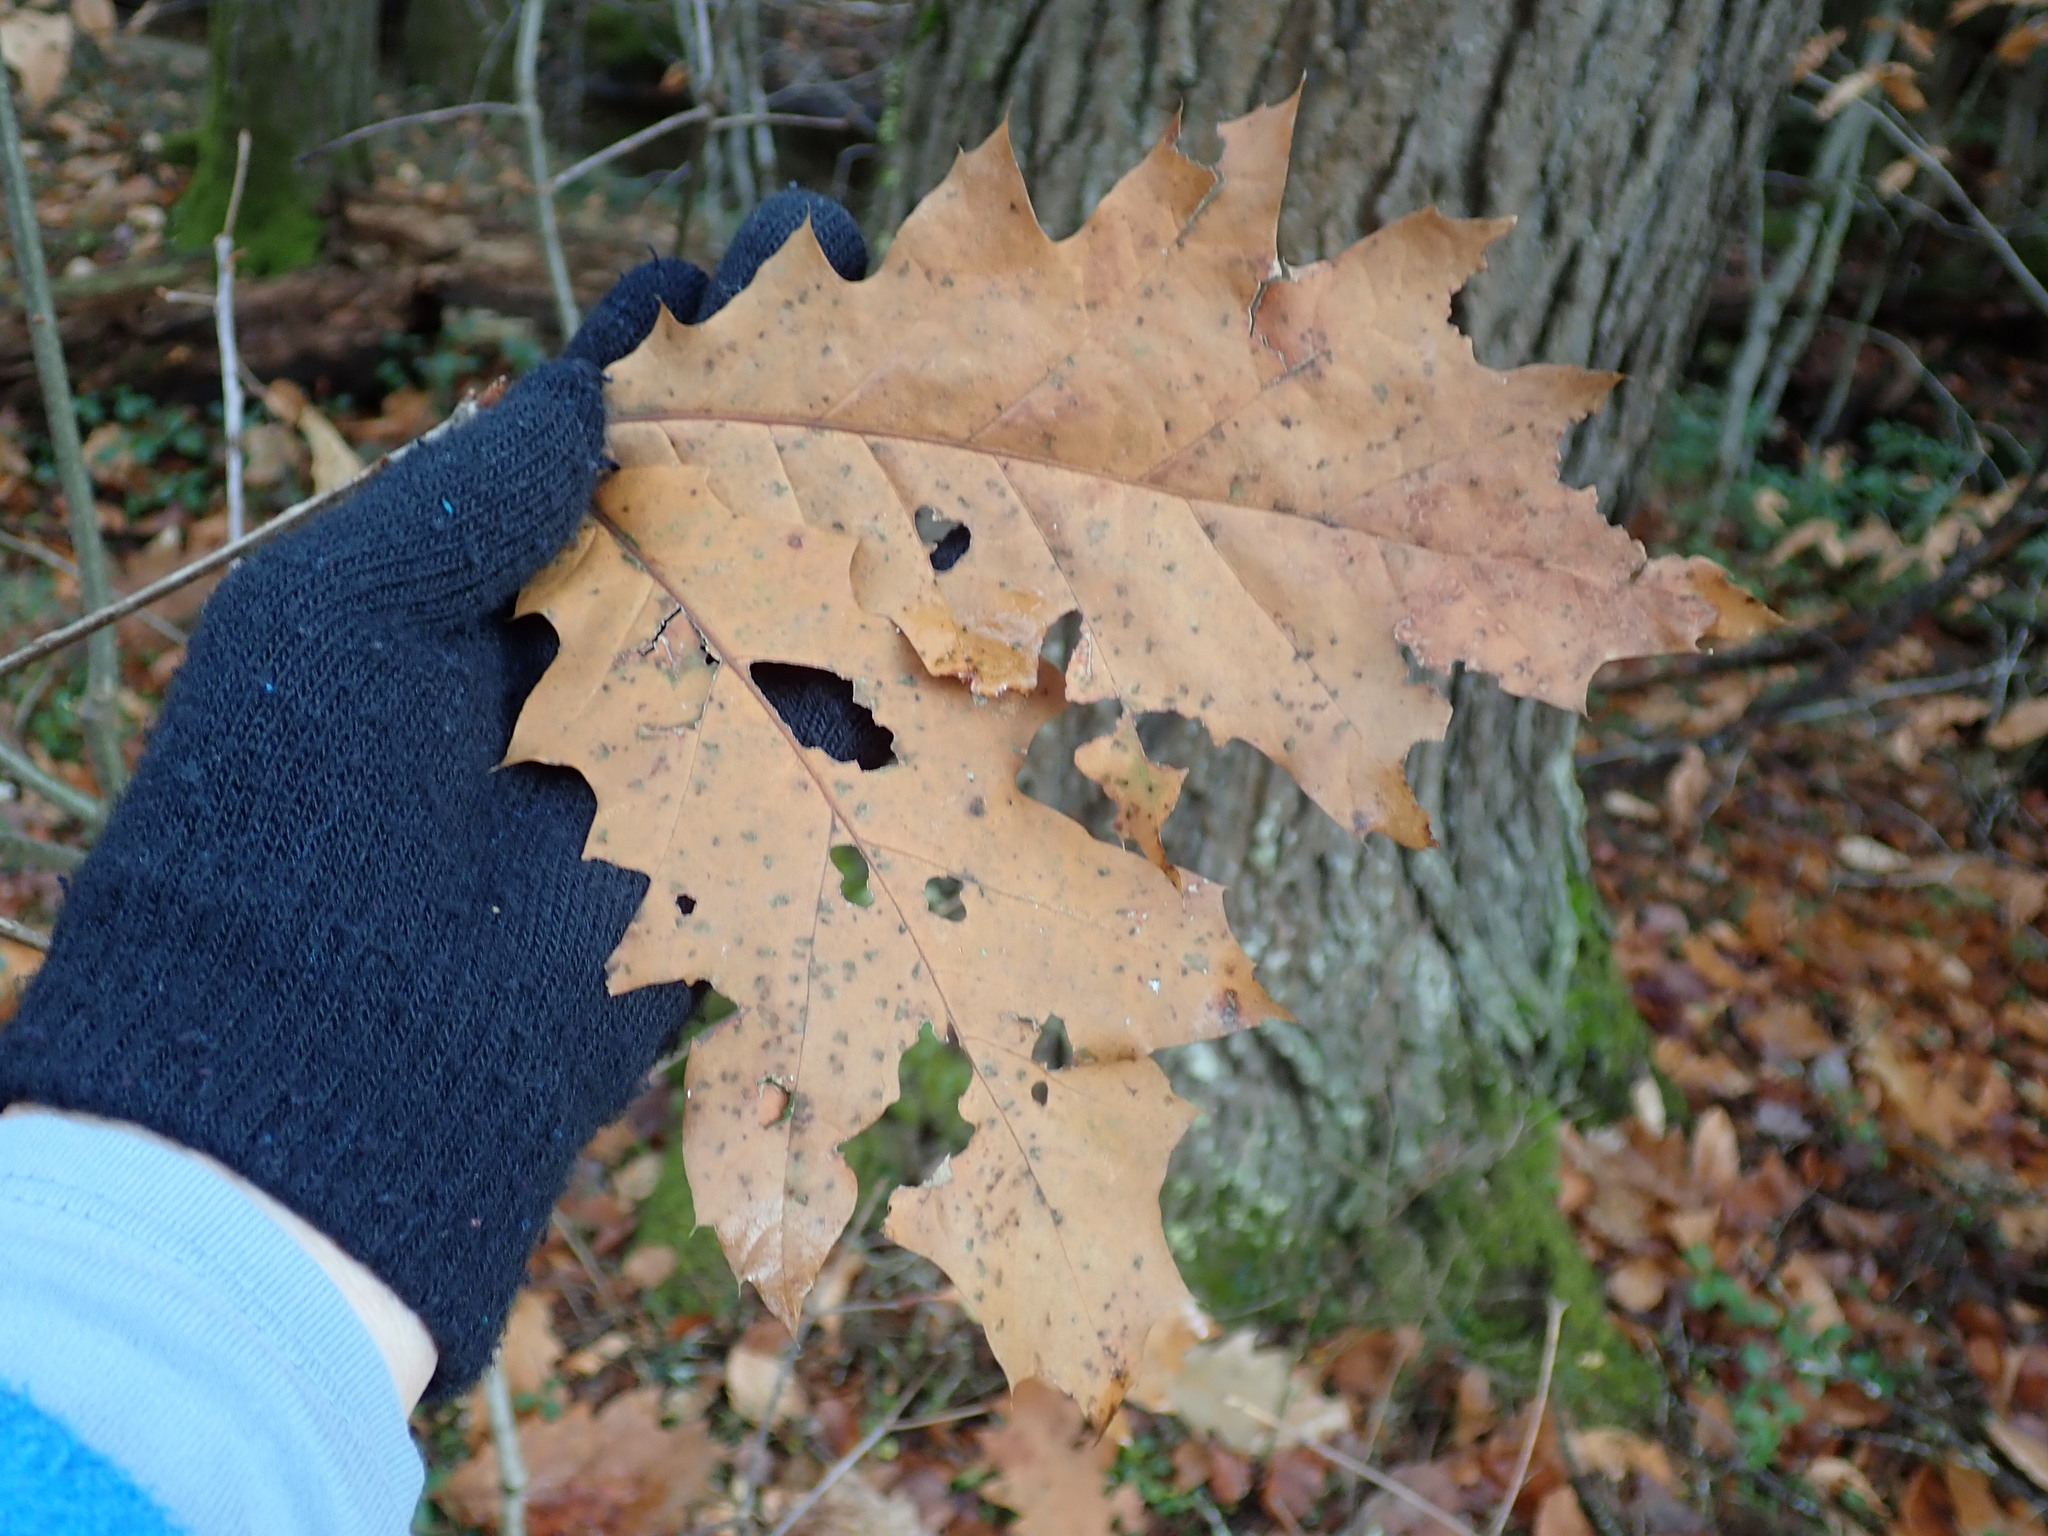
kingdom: Plantae
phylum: Tracheophyta
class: Magnoliopsida
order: Fagales
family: Fagaceae
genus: Quercus
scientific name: Quercus rubra
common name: Red oak
